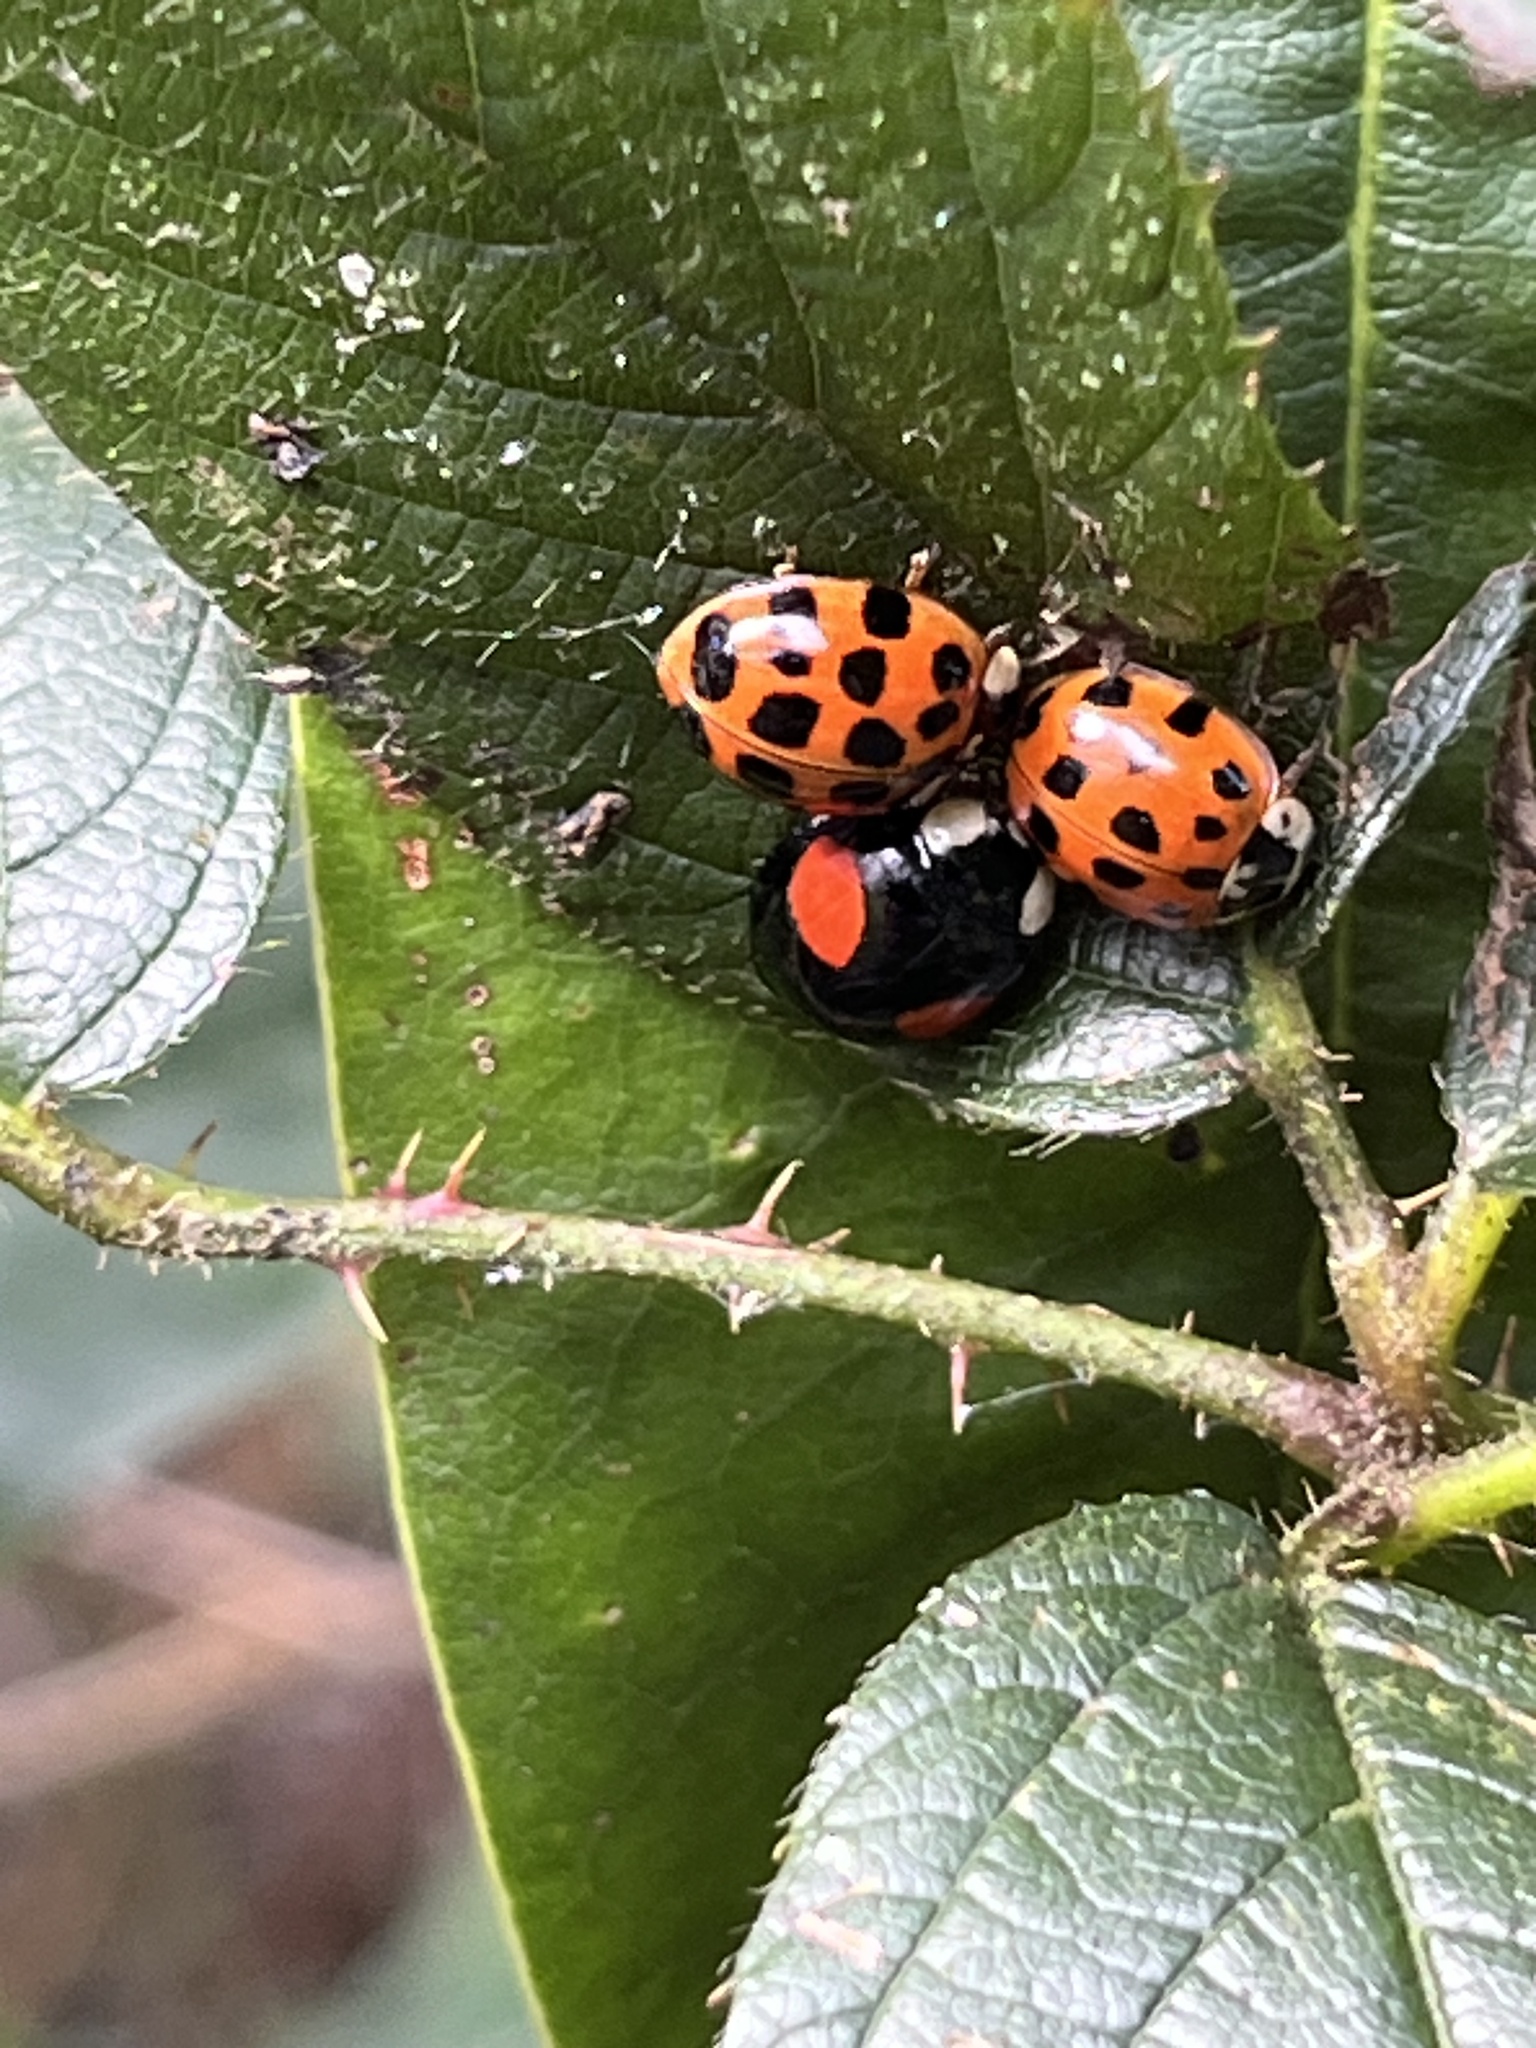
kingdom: Animalia
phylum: Arthropoda
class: Insecta
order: Coleoptera
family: Coccinellidae
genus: Harmonia
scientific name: Harmonia axyridis
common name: Harlequin ladybird
